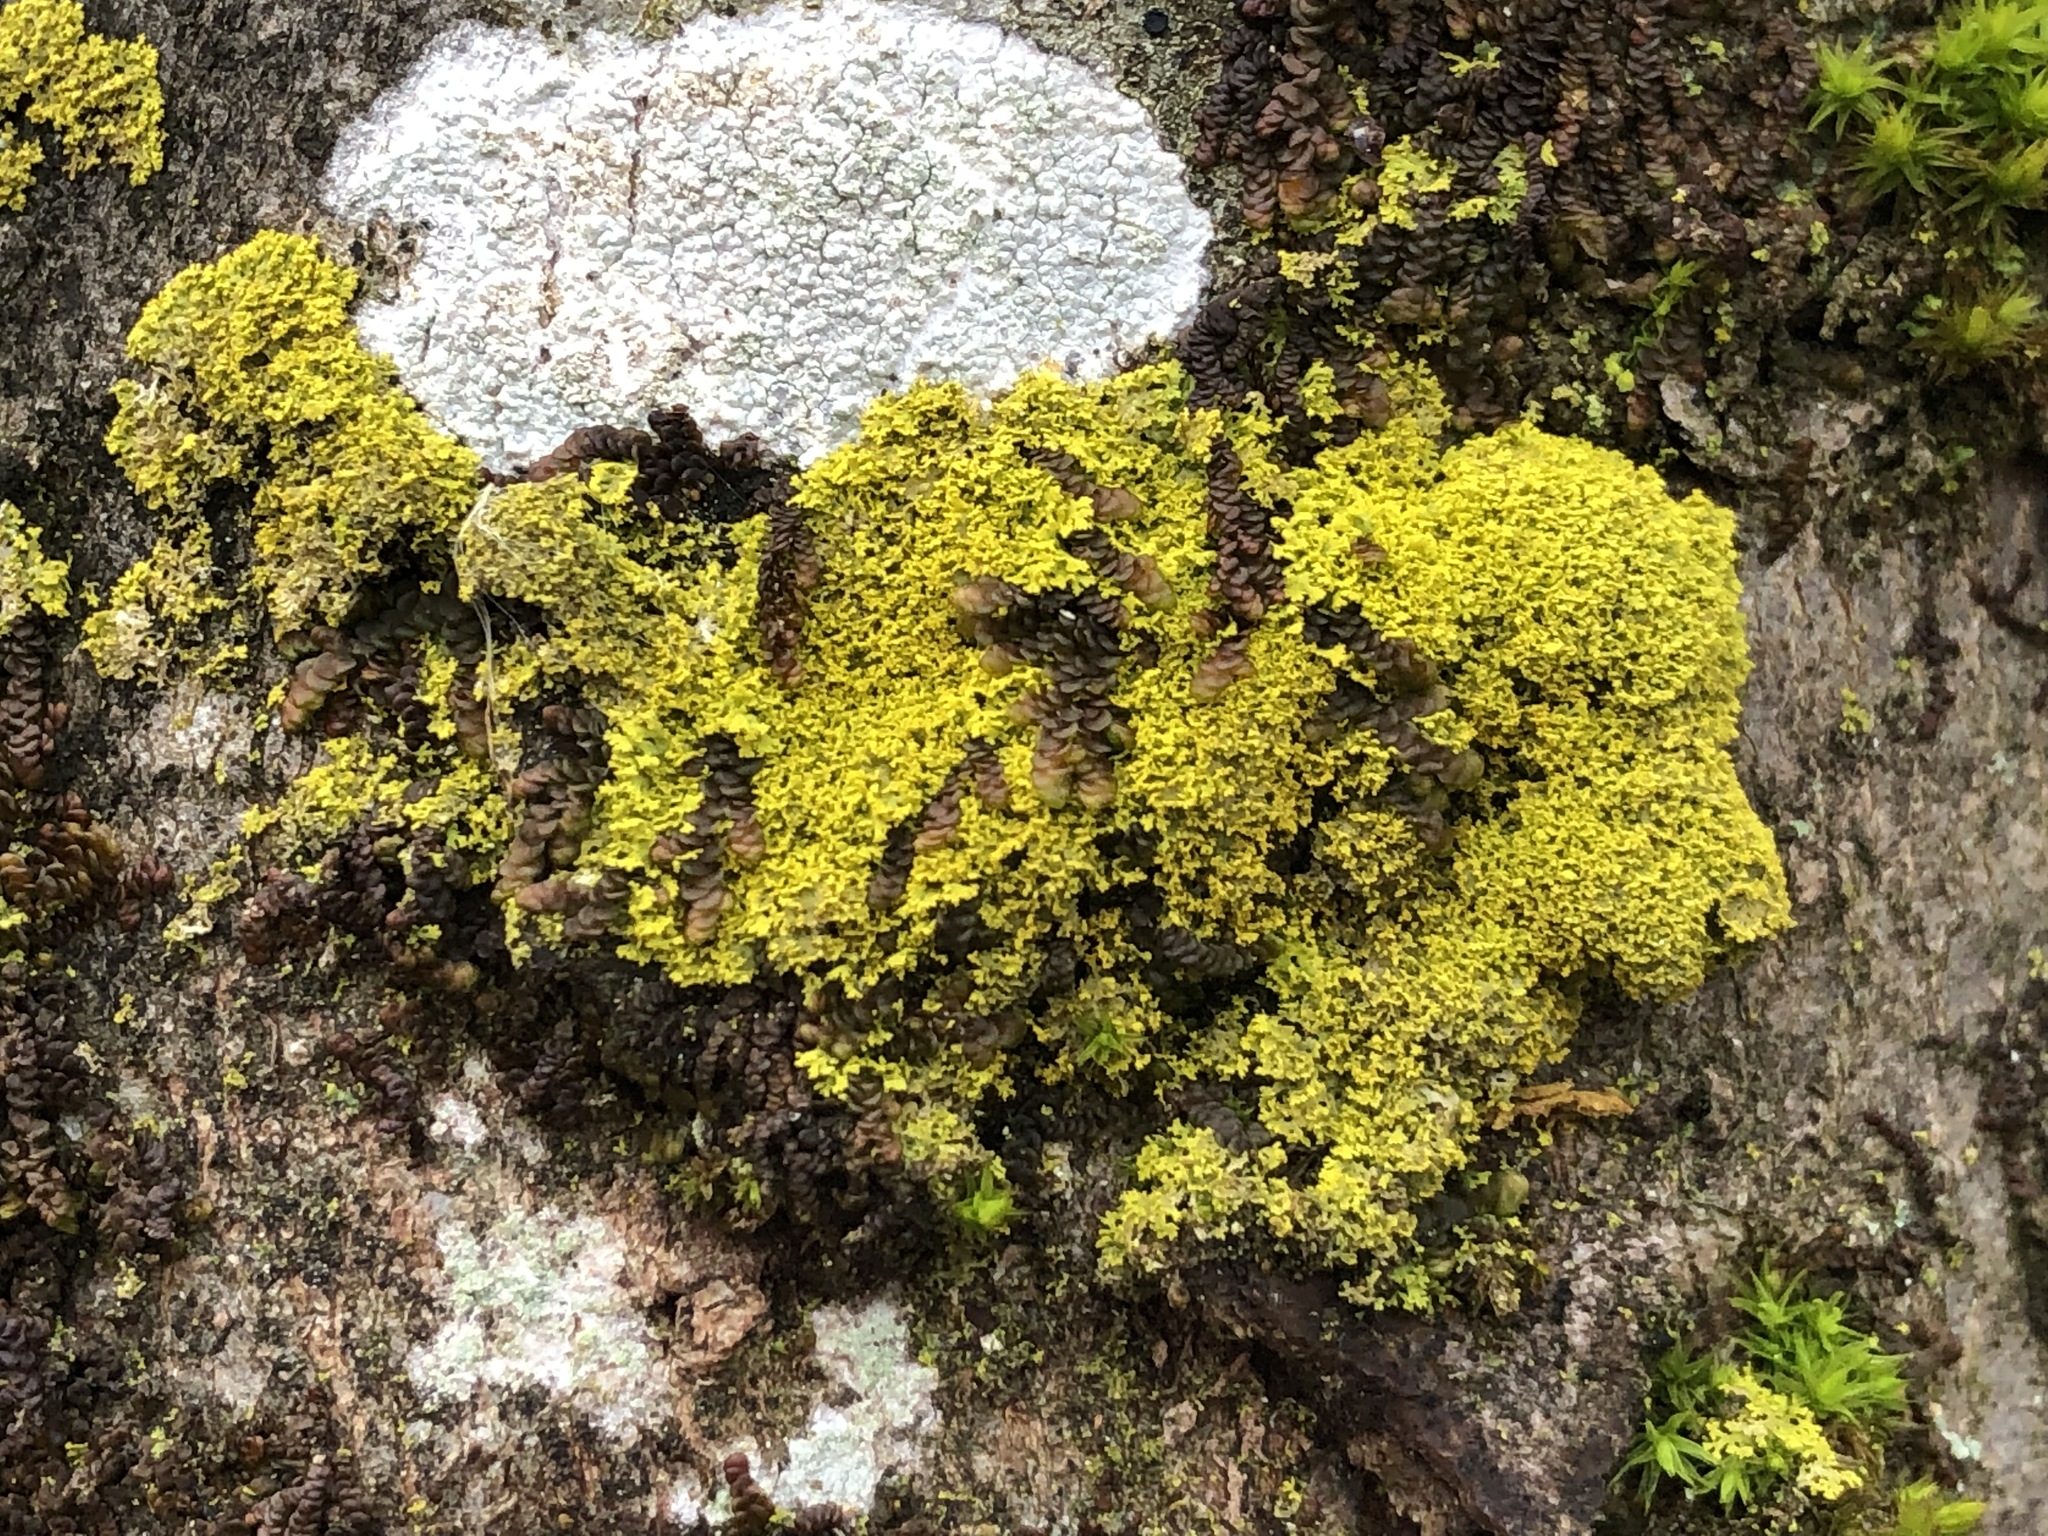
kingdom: Fungi
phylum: Ascomycota
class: Candelariomycetes
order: Candelariales
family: Candelariaceae
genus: Candelaria
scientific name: Candelaria concolor
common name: Candleflame lichen
